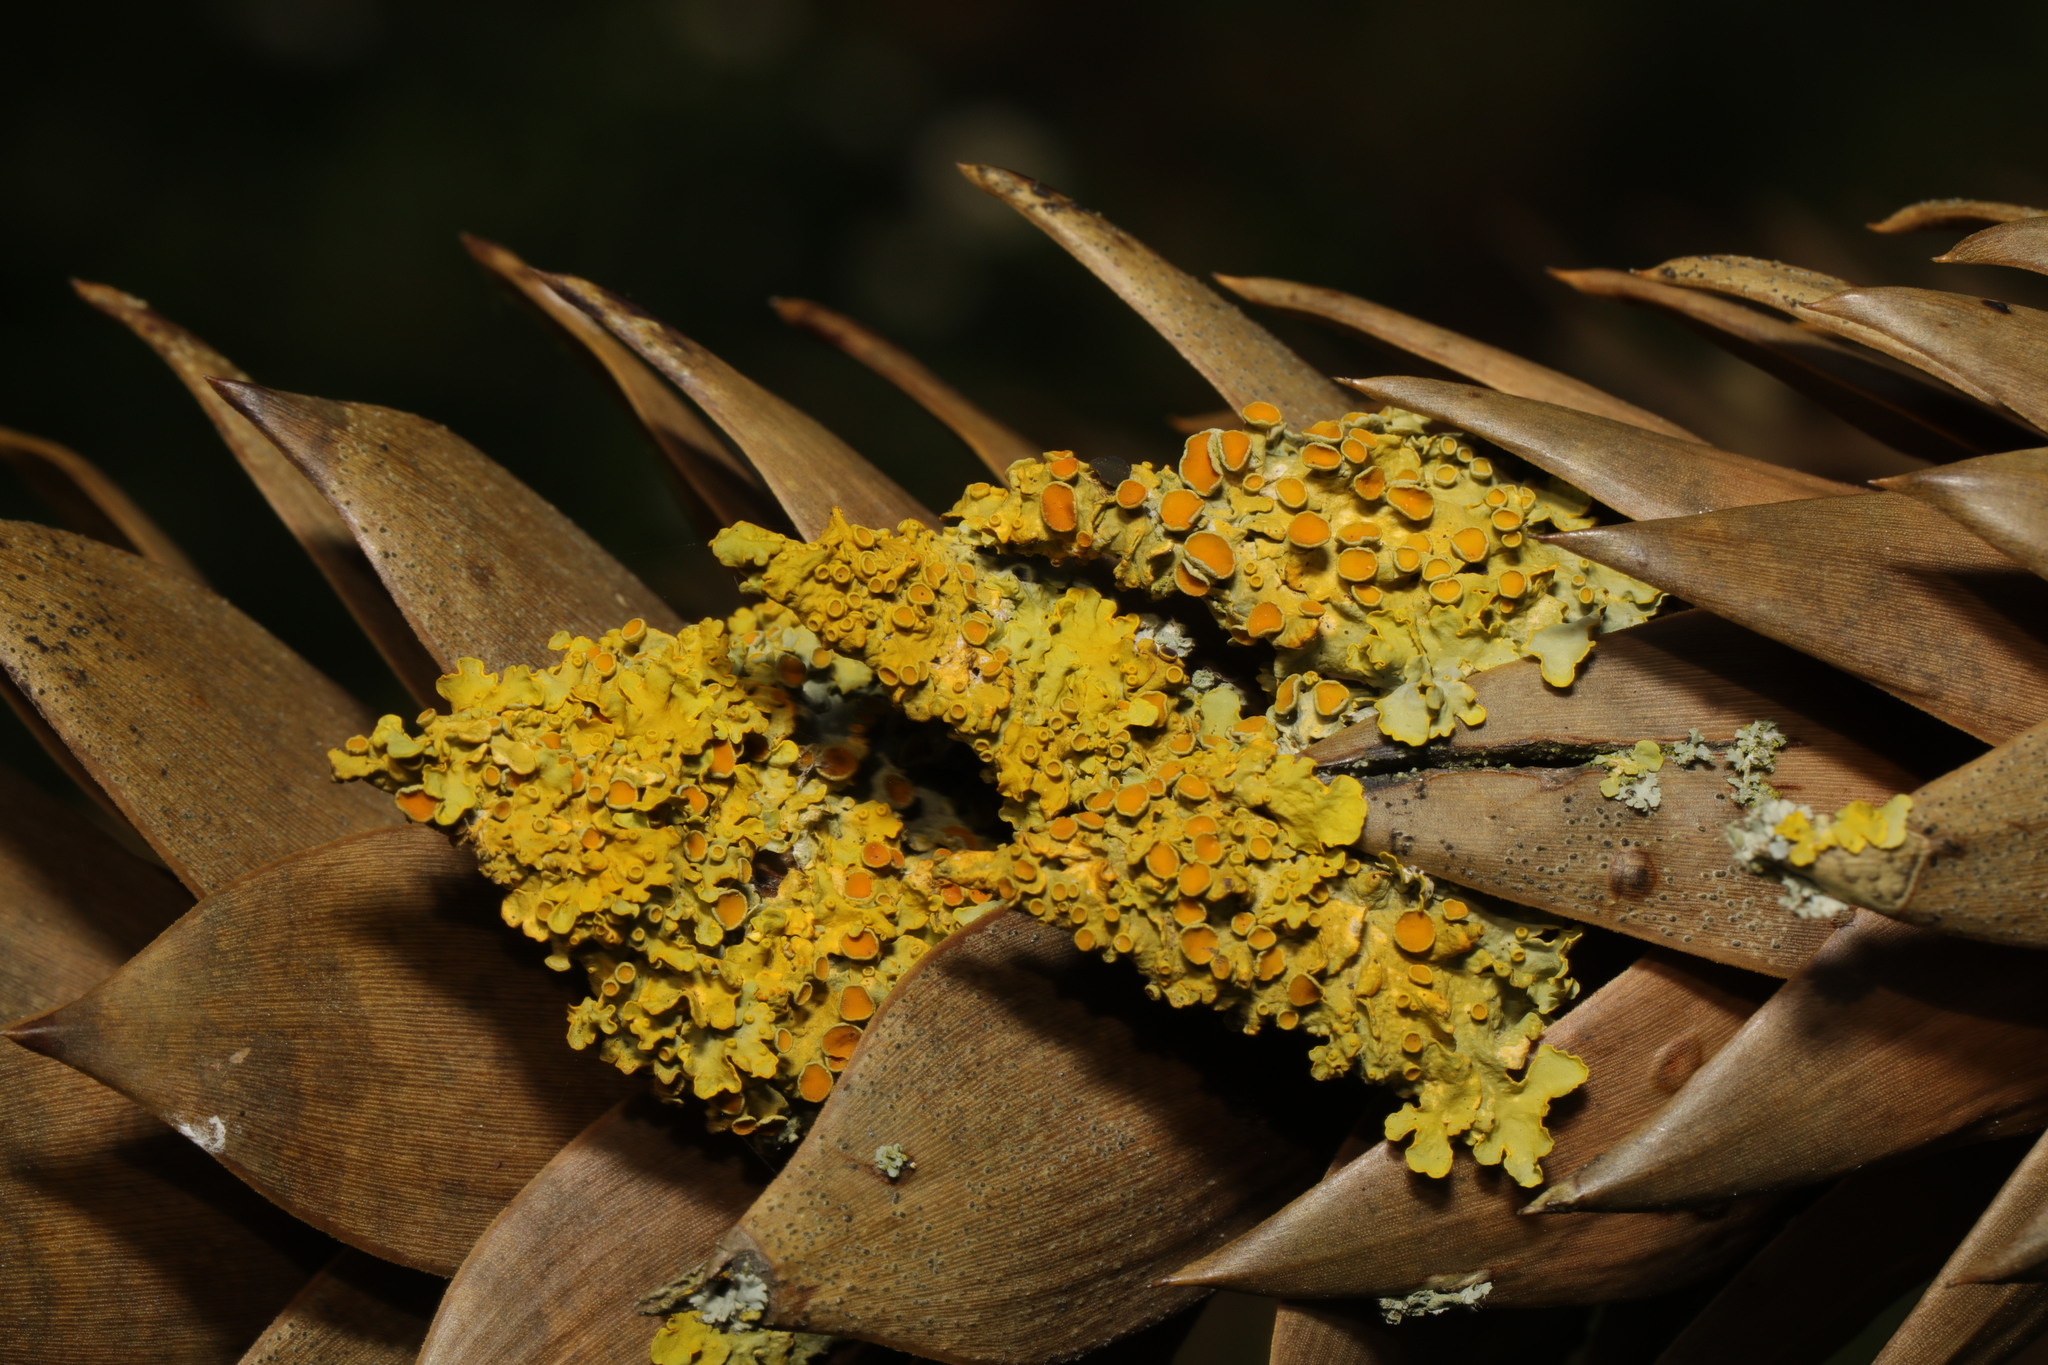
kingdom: Fungi
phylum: Ascomycota
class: Lecanoromycetes
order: Teloschistales
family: Teloschistaceae
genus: Xanthoria
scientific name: Xanthoria parietina
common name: Common orange lichen
